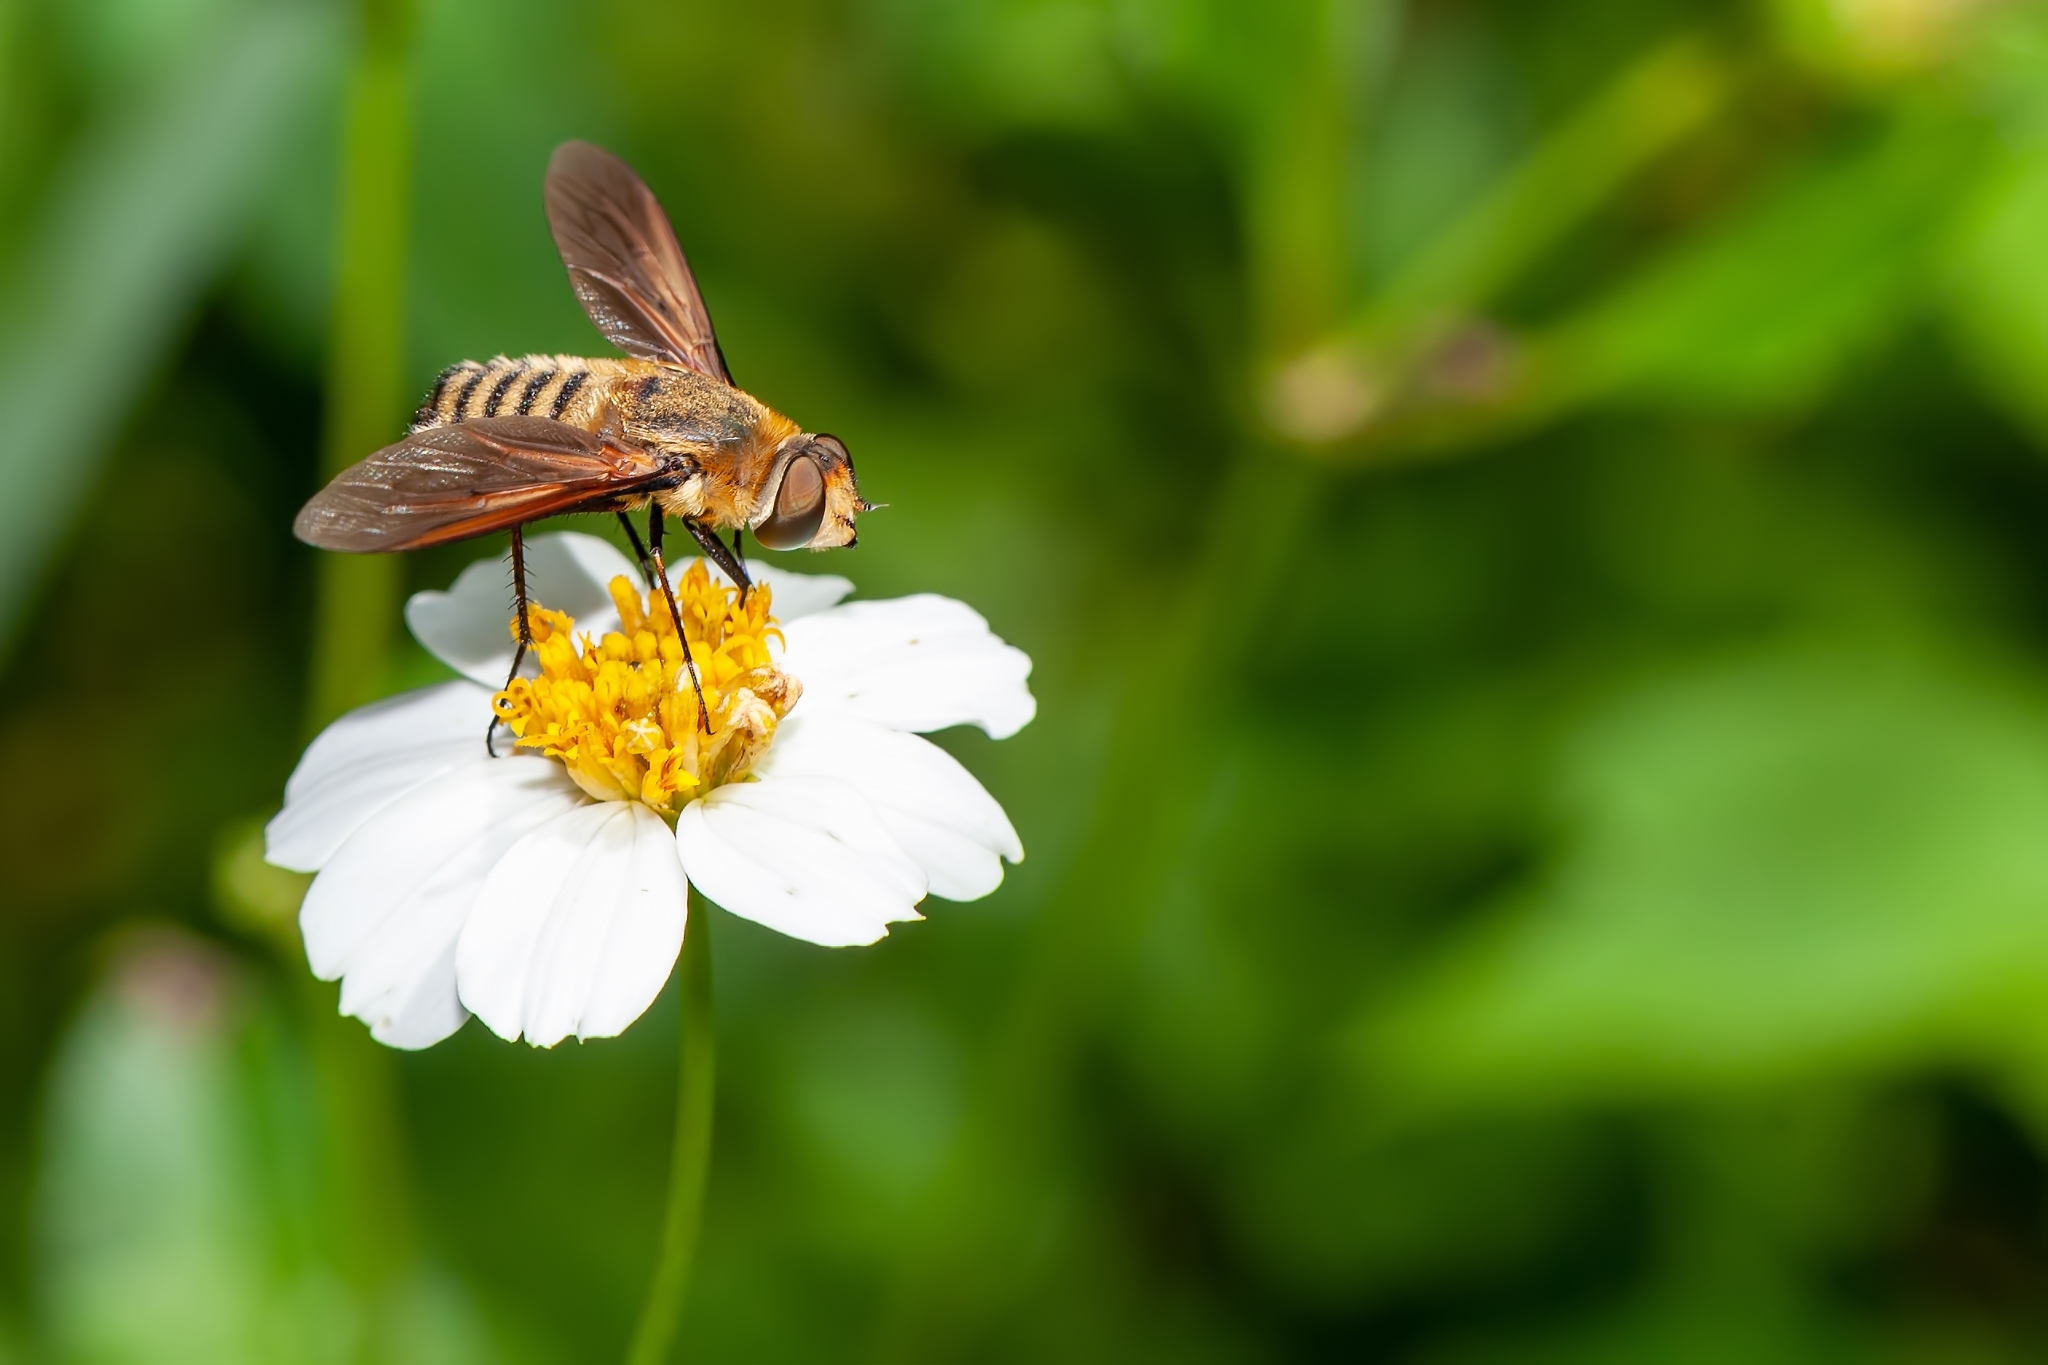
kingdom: Animalia
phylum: Arthropoda
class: Insecta
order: Diptera
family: Bombyliidae
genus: Poecilanthrax
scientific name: Poecilanthrax lucifer
